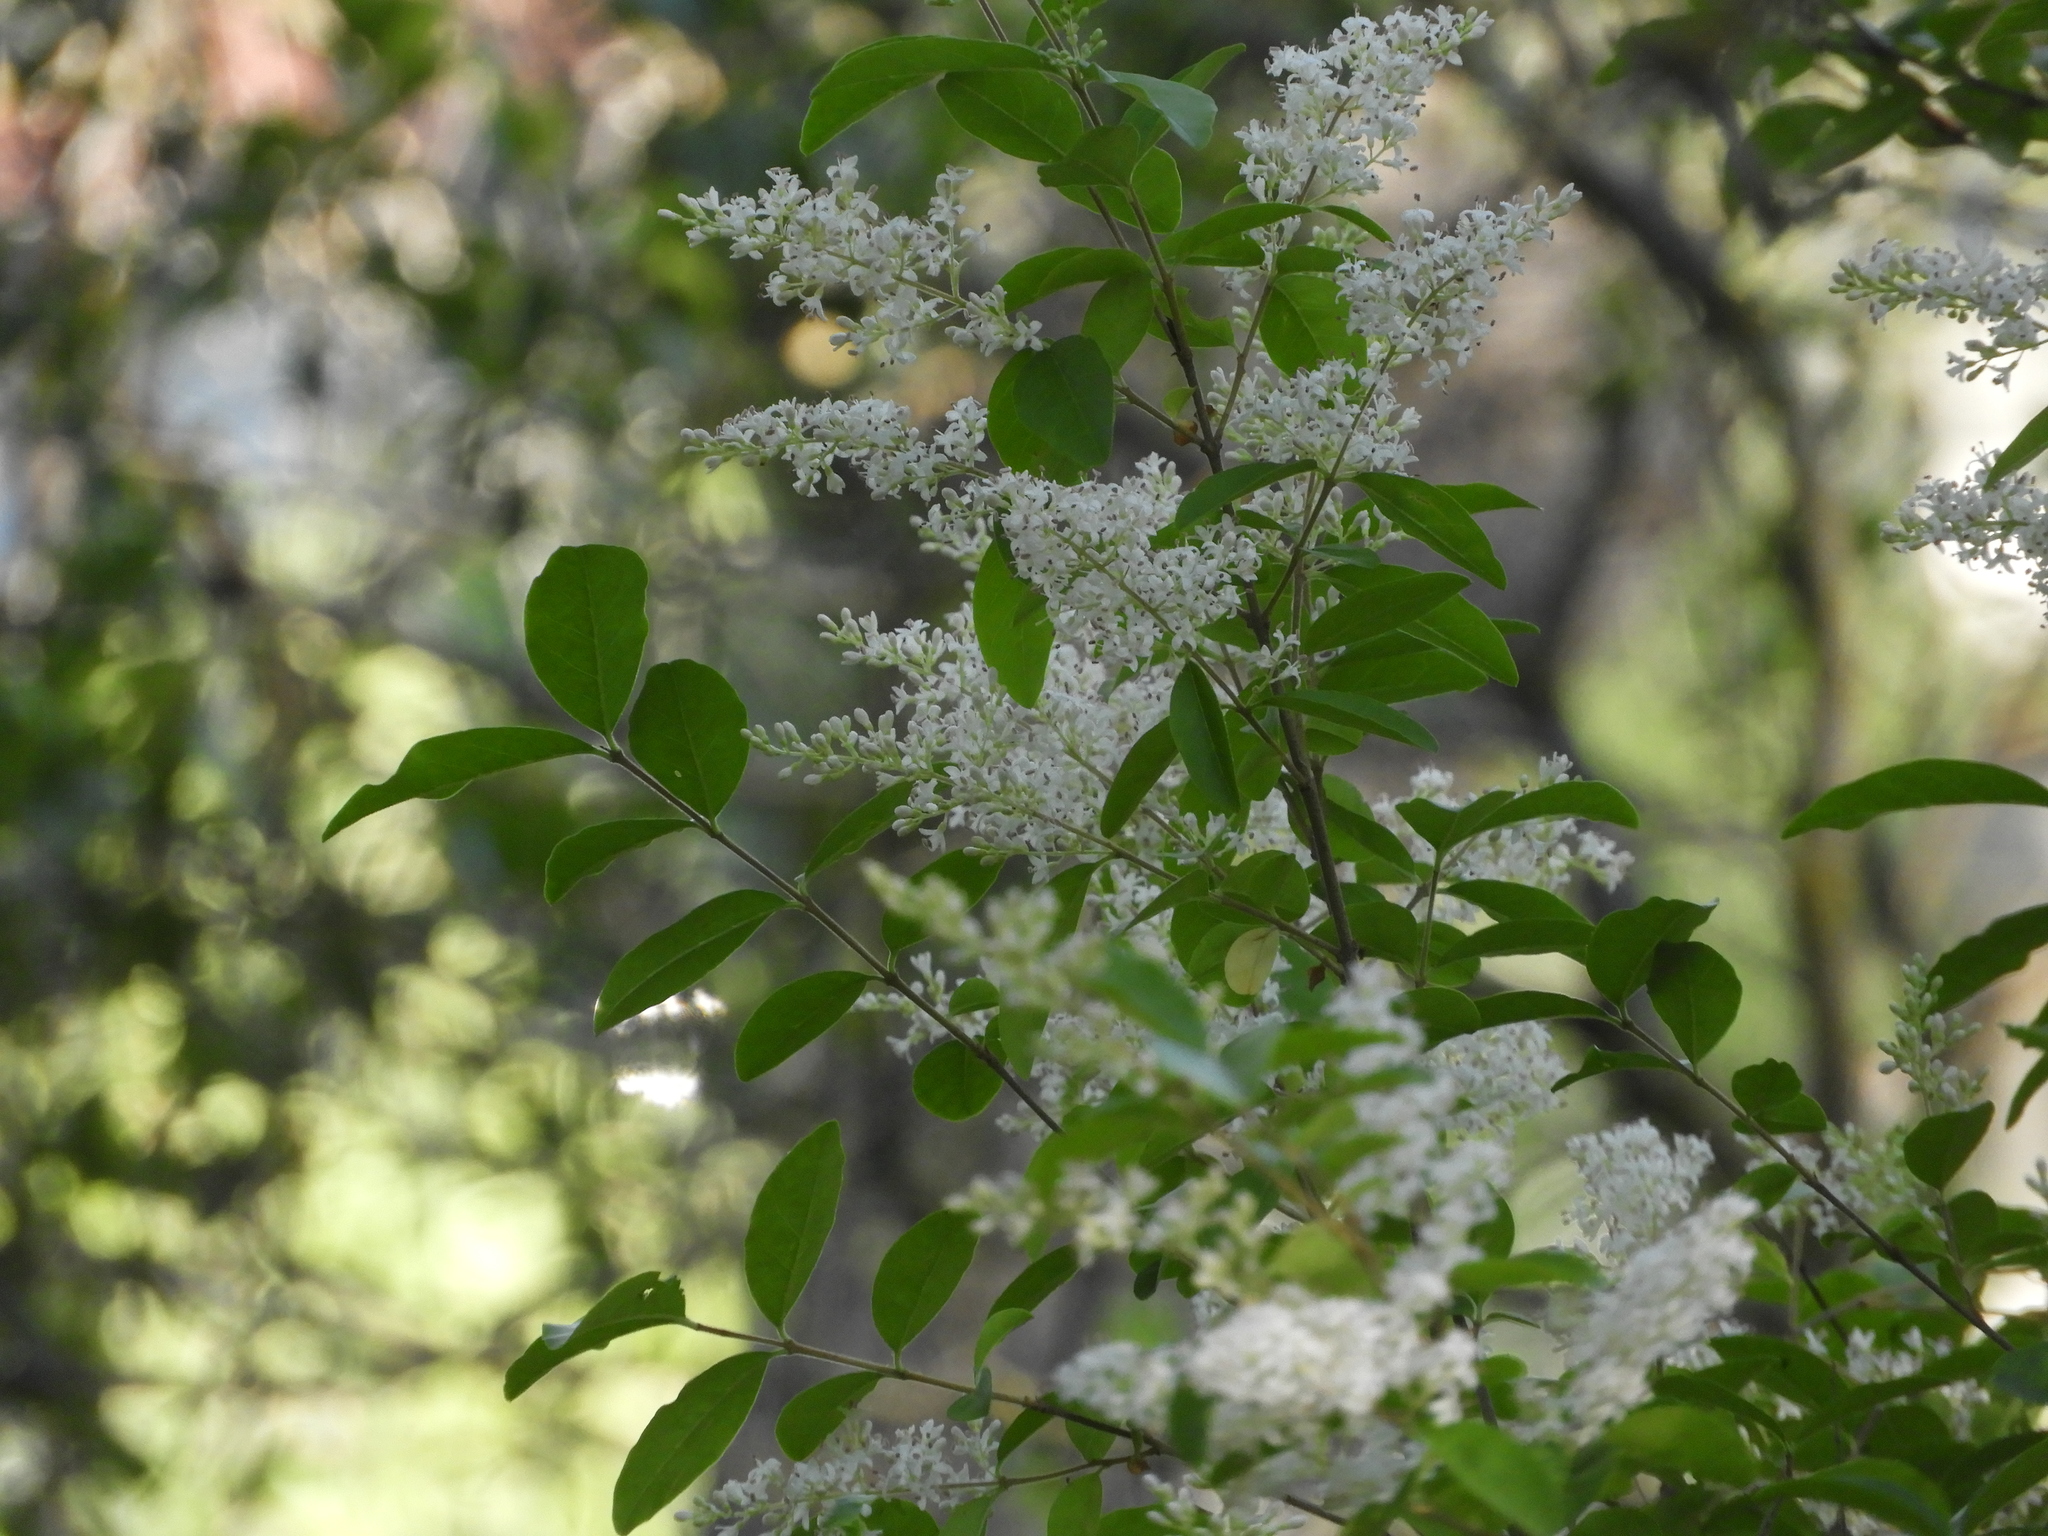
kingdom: Plantae
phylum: Tracheophyta
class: Magnoliopsida
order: Lamiales
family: Oleaceae
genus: Ligustrum
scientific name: Ligustrum sinense
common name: Chinese privet
